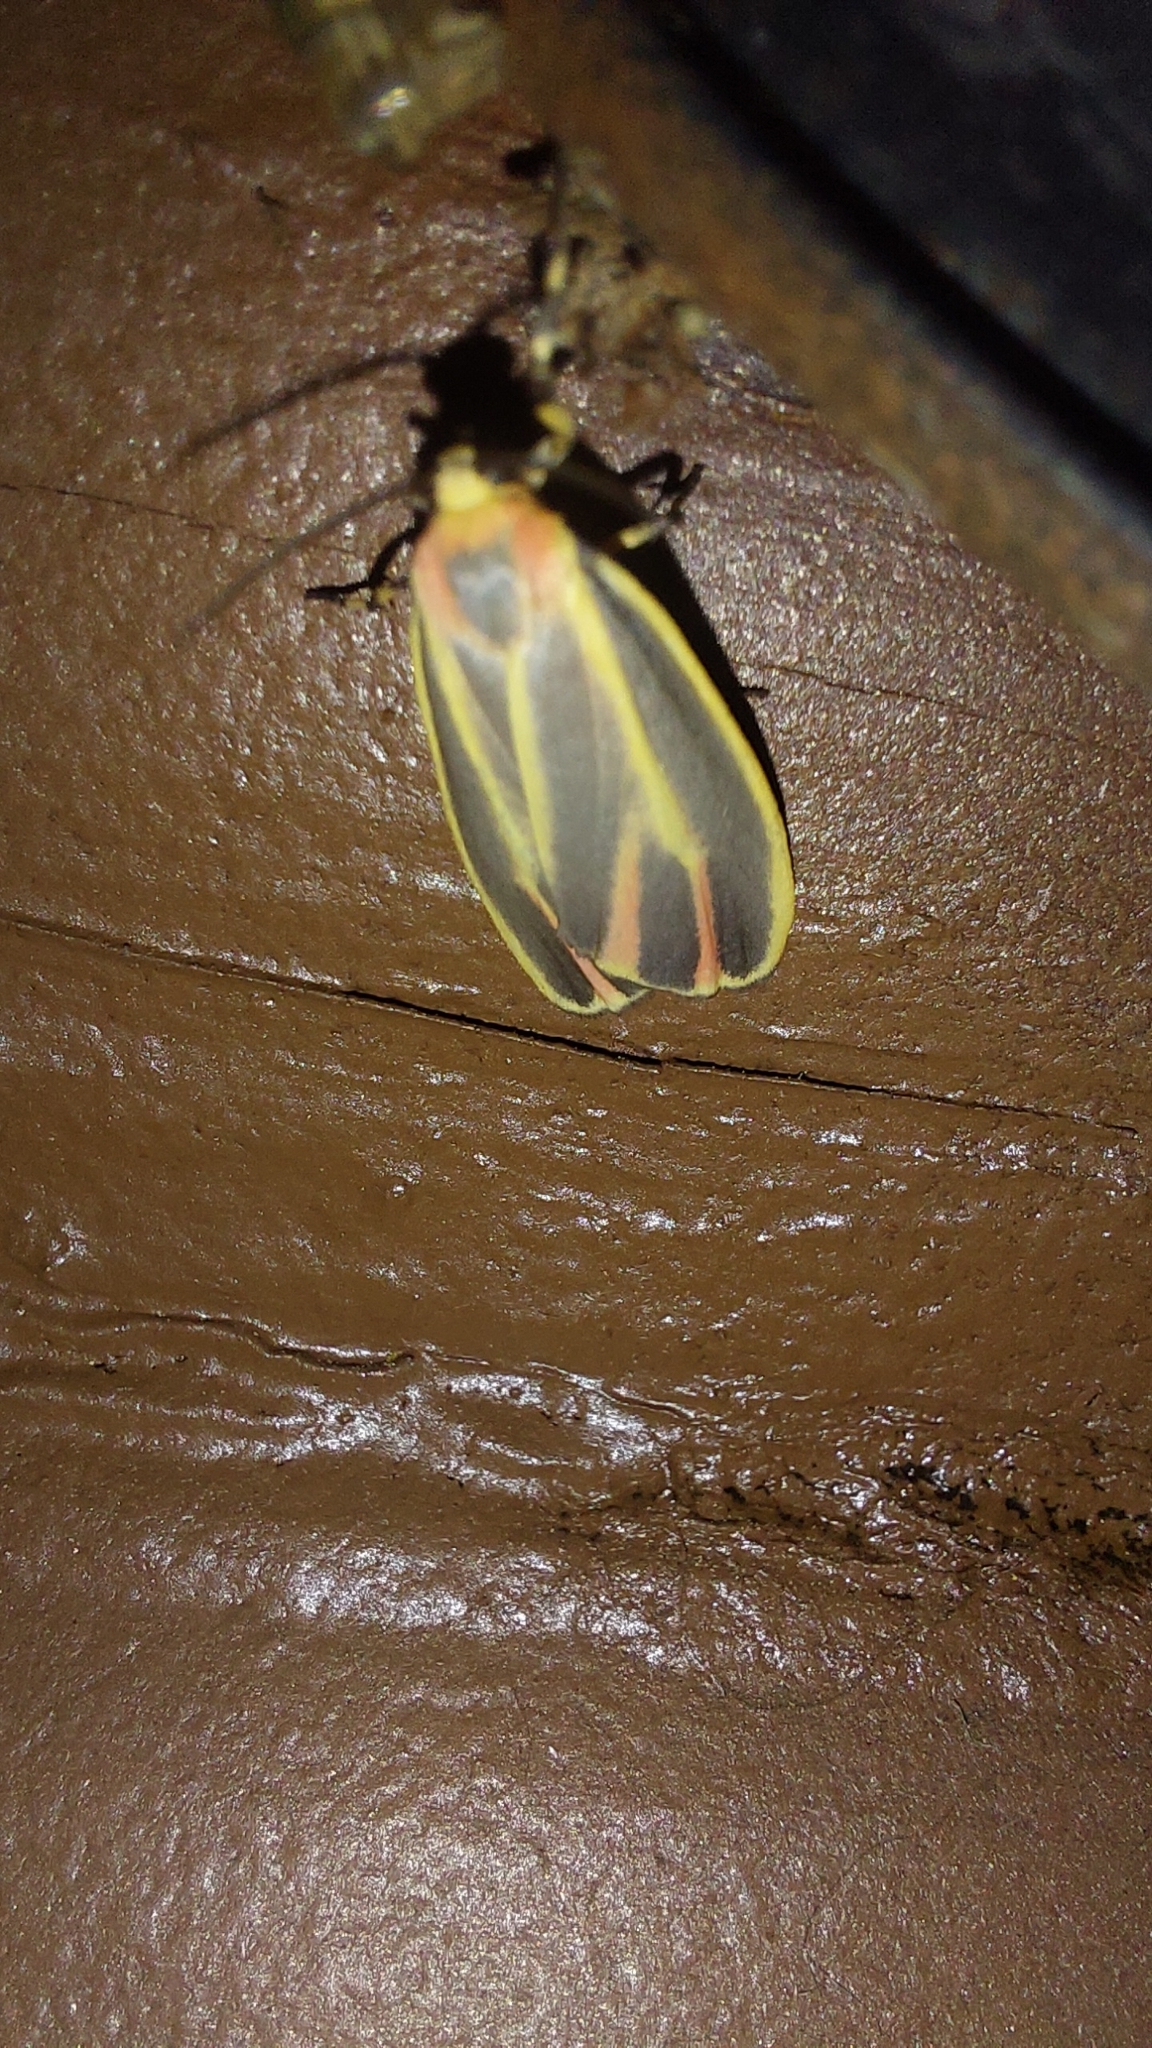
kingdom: Animalia
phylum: Arthropoda
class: Insecta
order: Lepidoptera
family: Erebidae
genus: Hypoprepia
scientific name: Hypoprepia fucosa
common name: Painted lichen moth
